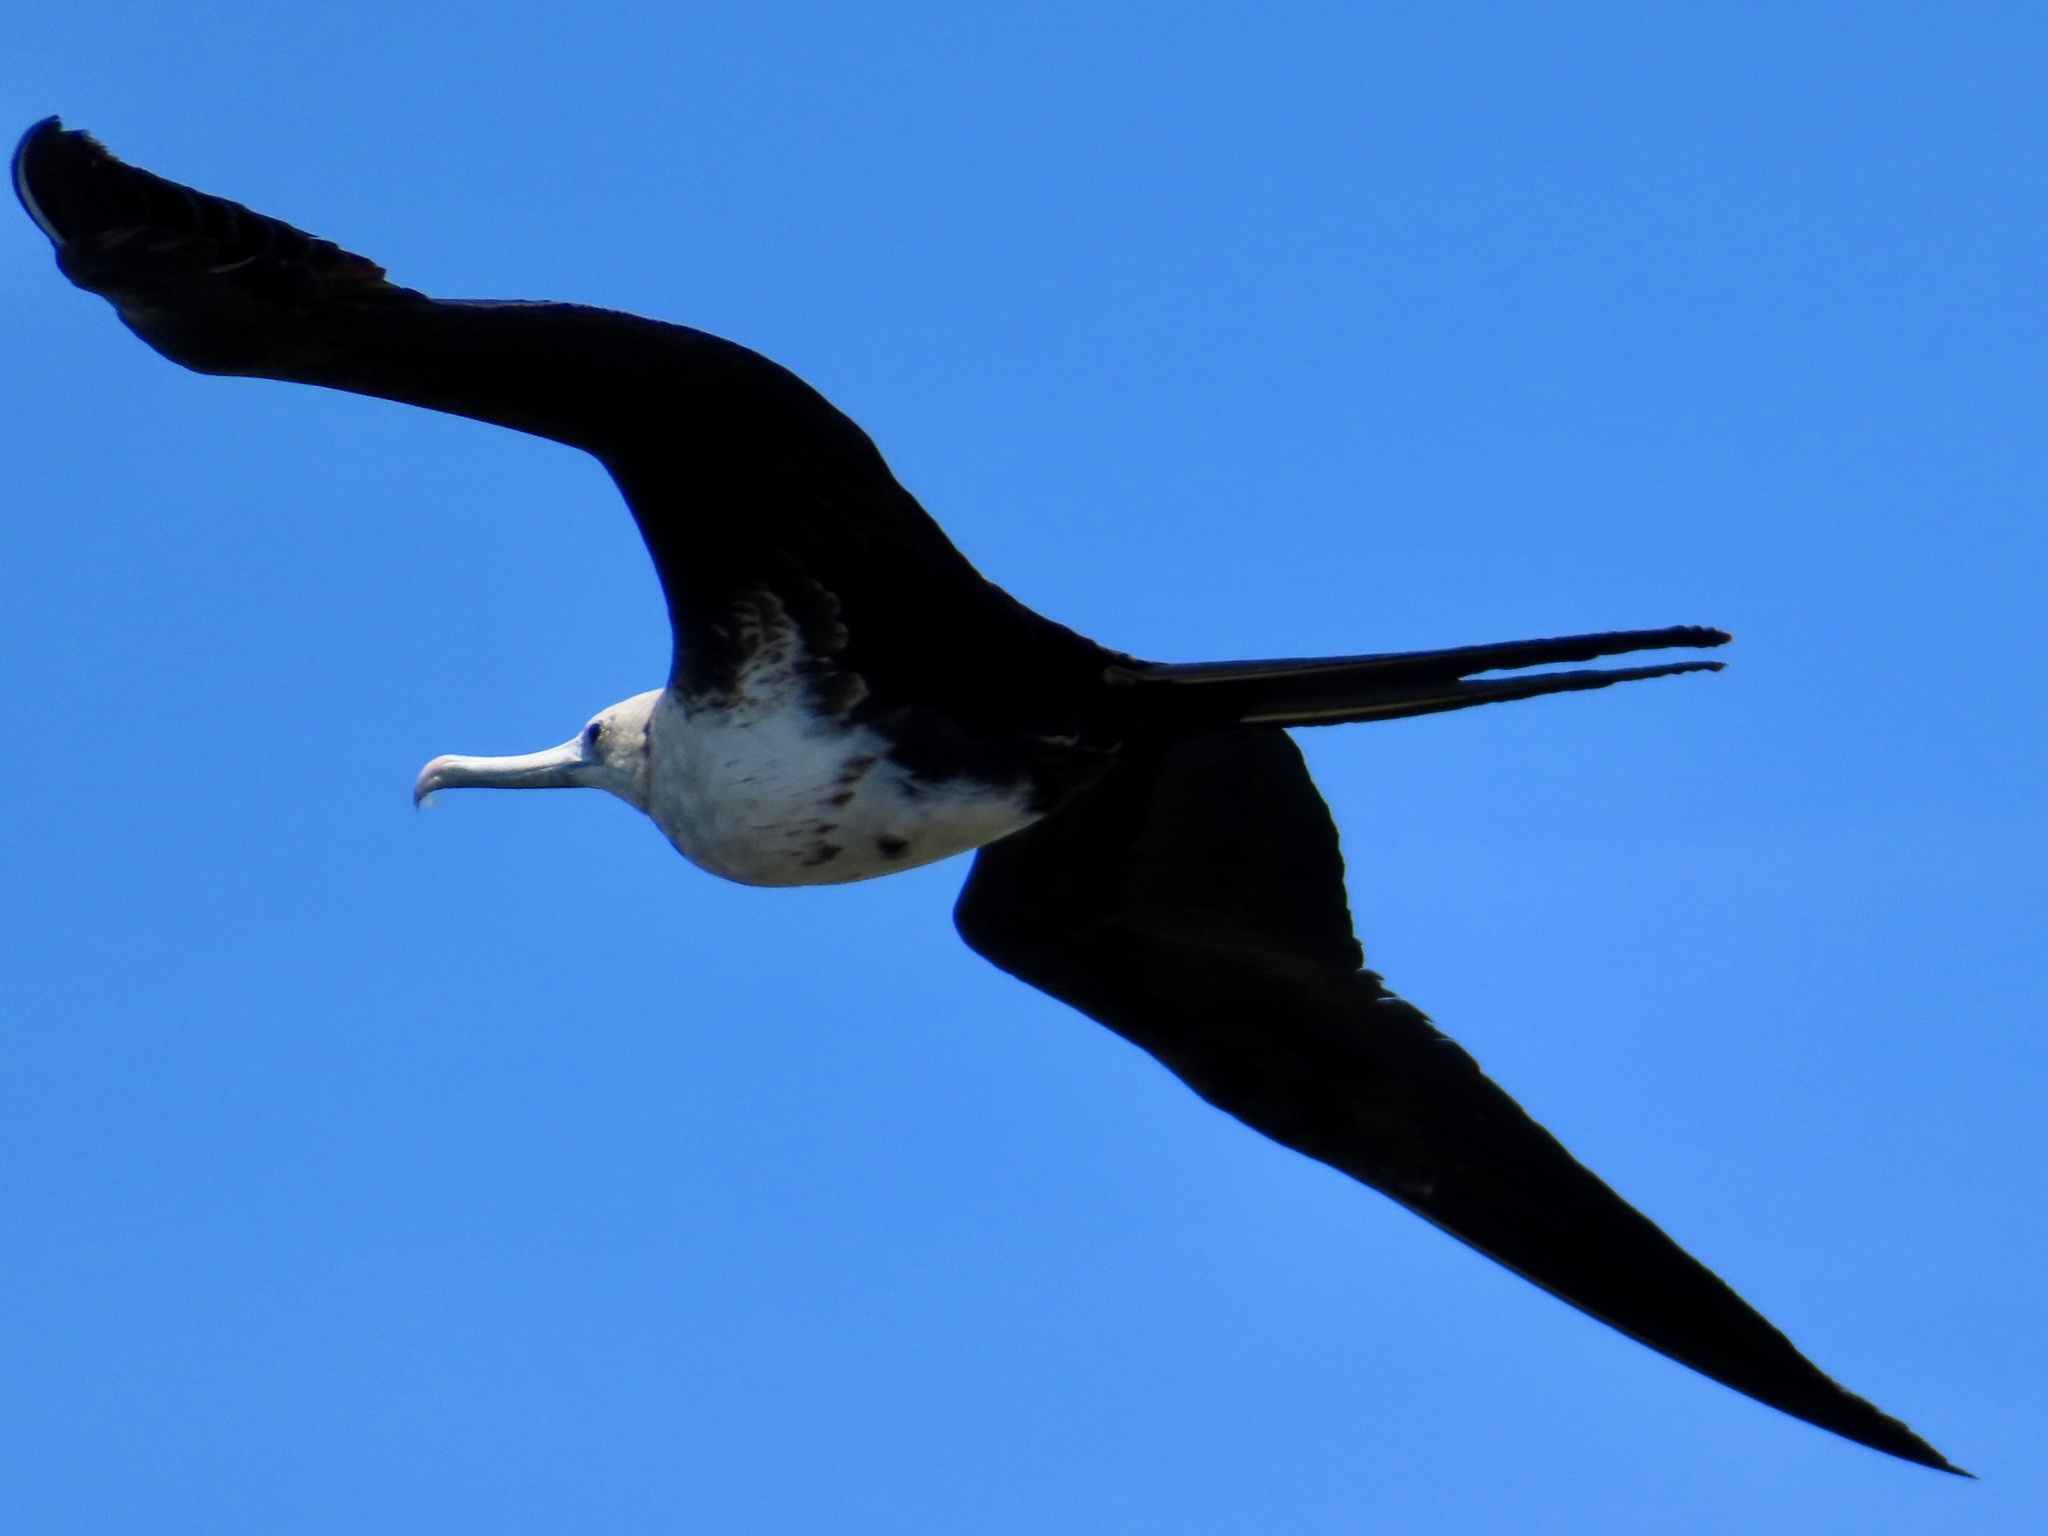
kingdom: Animalia
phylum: Chordata
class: Aves
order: Suliformes
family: Fregatidae
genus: Fregata
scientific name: Fregata magnificens
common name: Magnificent frigatebird
